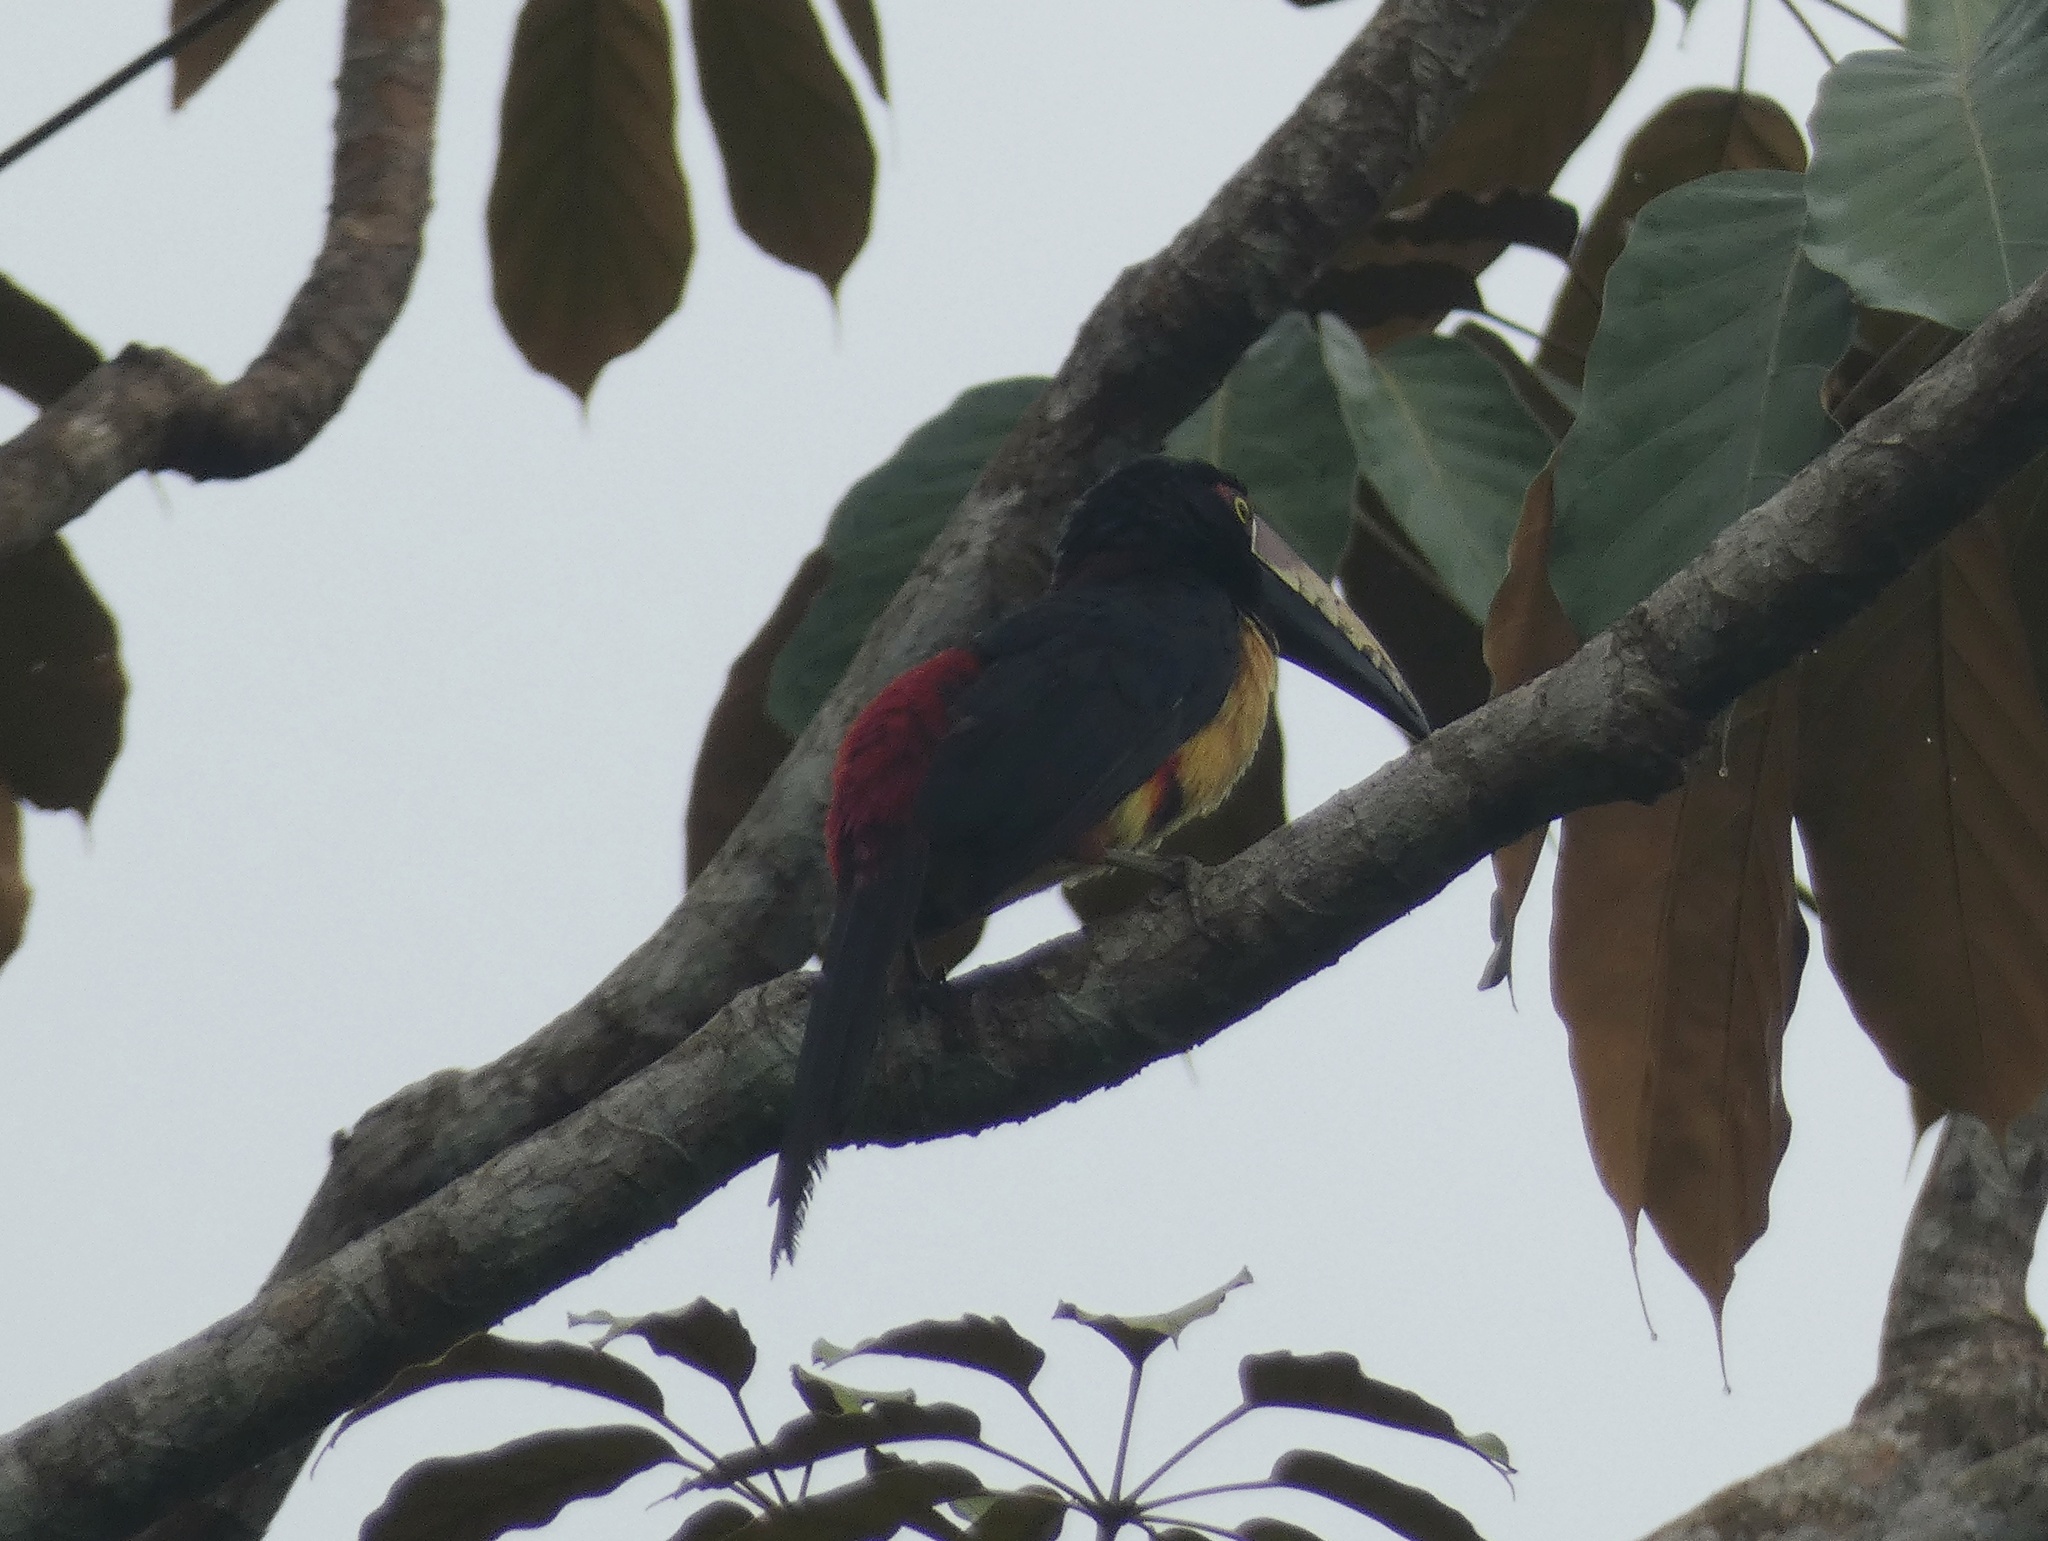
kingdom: Animalia
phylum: Chordata
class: Aves
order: Piciformes
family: Ramphastidae
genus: Pteroglossus
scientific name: Pteroglossus torquatus
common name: Collared aracari
